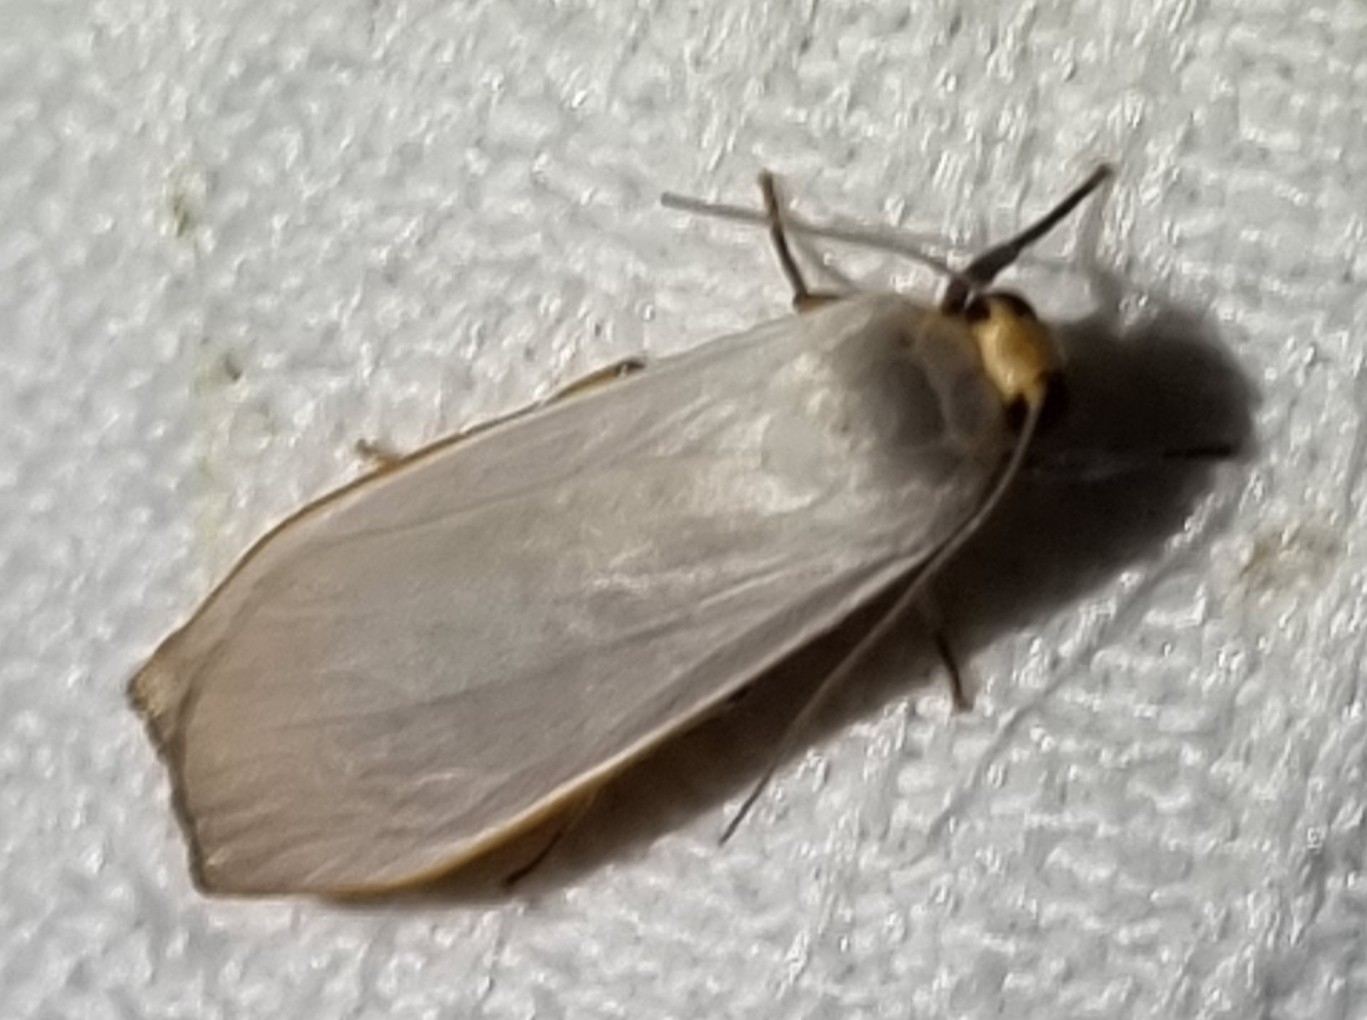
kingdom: Animalia
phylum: Arthropoda
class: Insecta
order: Lepidoptera
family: Erebidae
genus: Hesychopa
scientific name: Hesychopa chionora
